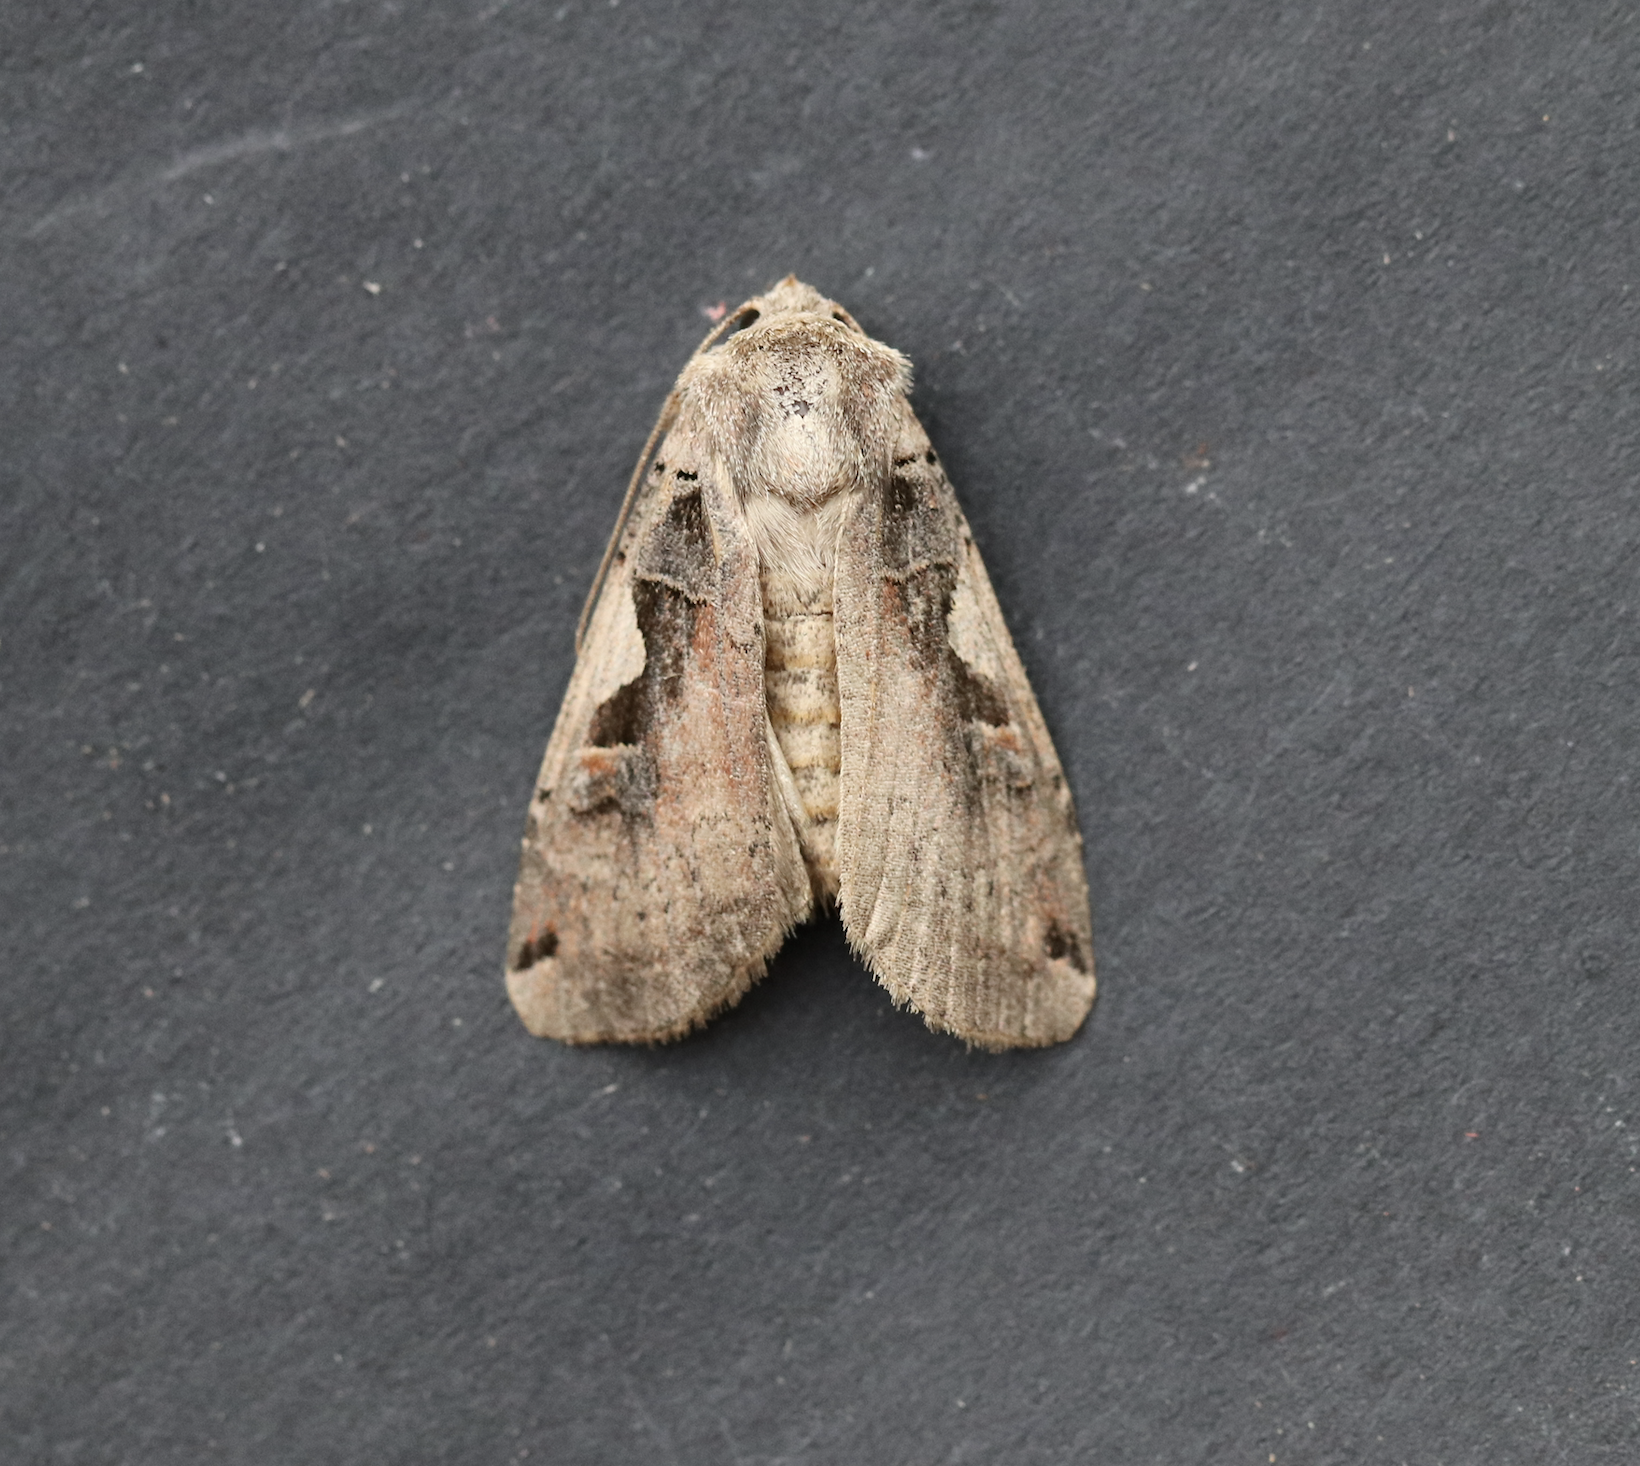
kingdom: Animalia
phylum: Arthropoda
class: Insecta
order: Lepidoptera
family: Noctuidae
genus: Xestia
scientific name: Xestia c-nigrum
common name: Setaceous hebrew character
